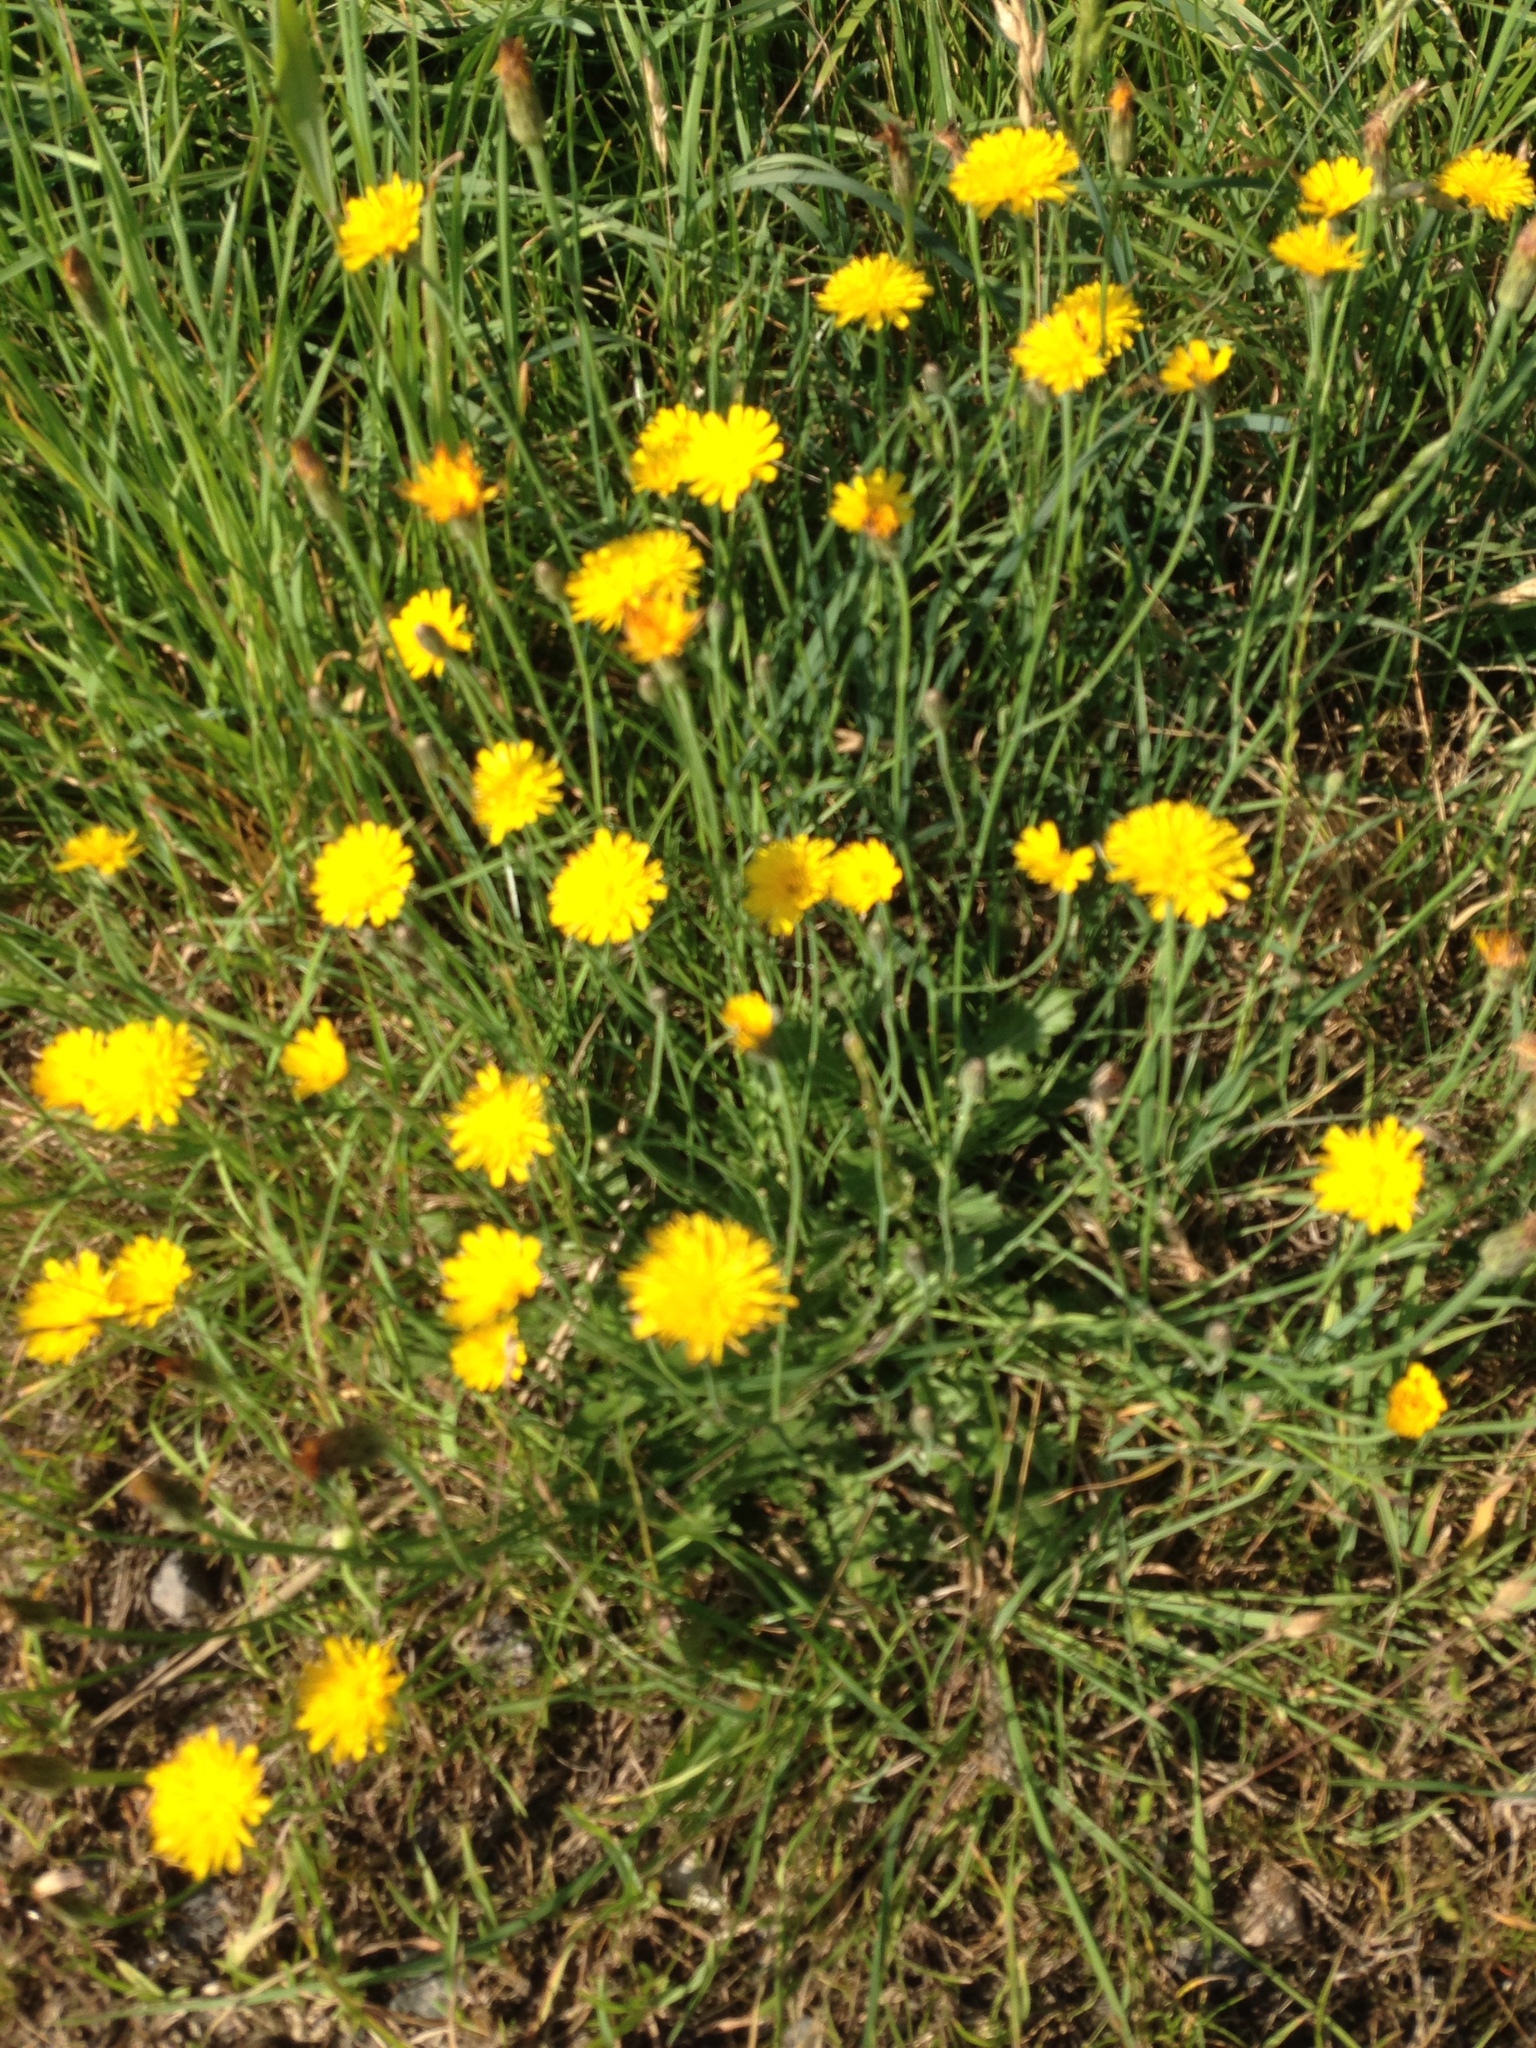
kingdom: Plantae
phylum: Tracheophyta
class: Magnoliopsida
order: Asterales
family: Asteraceae
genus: Hypochaeris
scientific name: Hypochaeris radicata
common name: Flatweed
